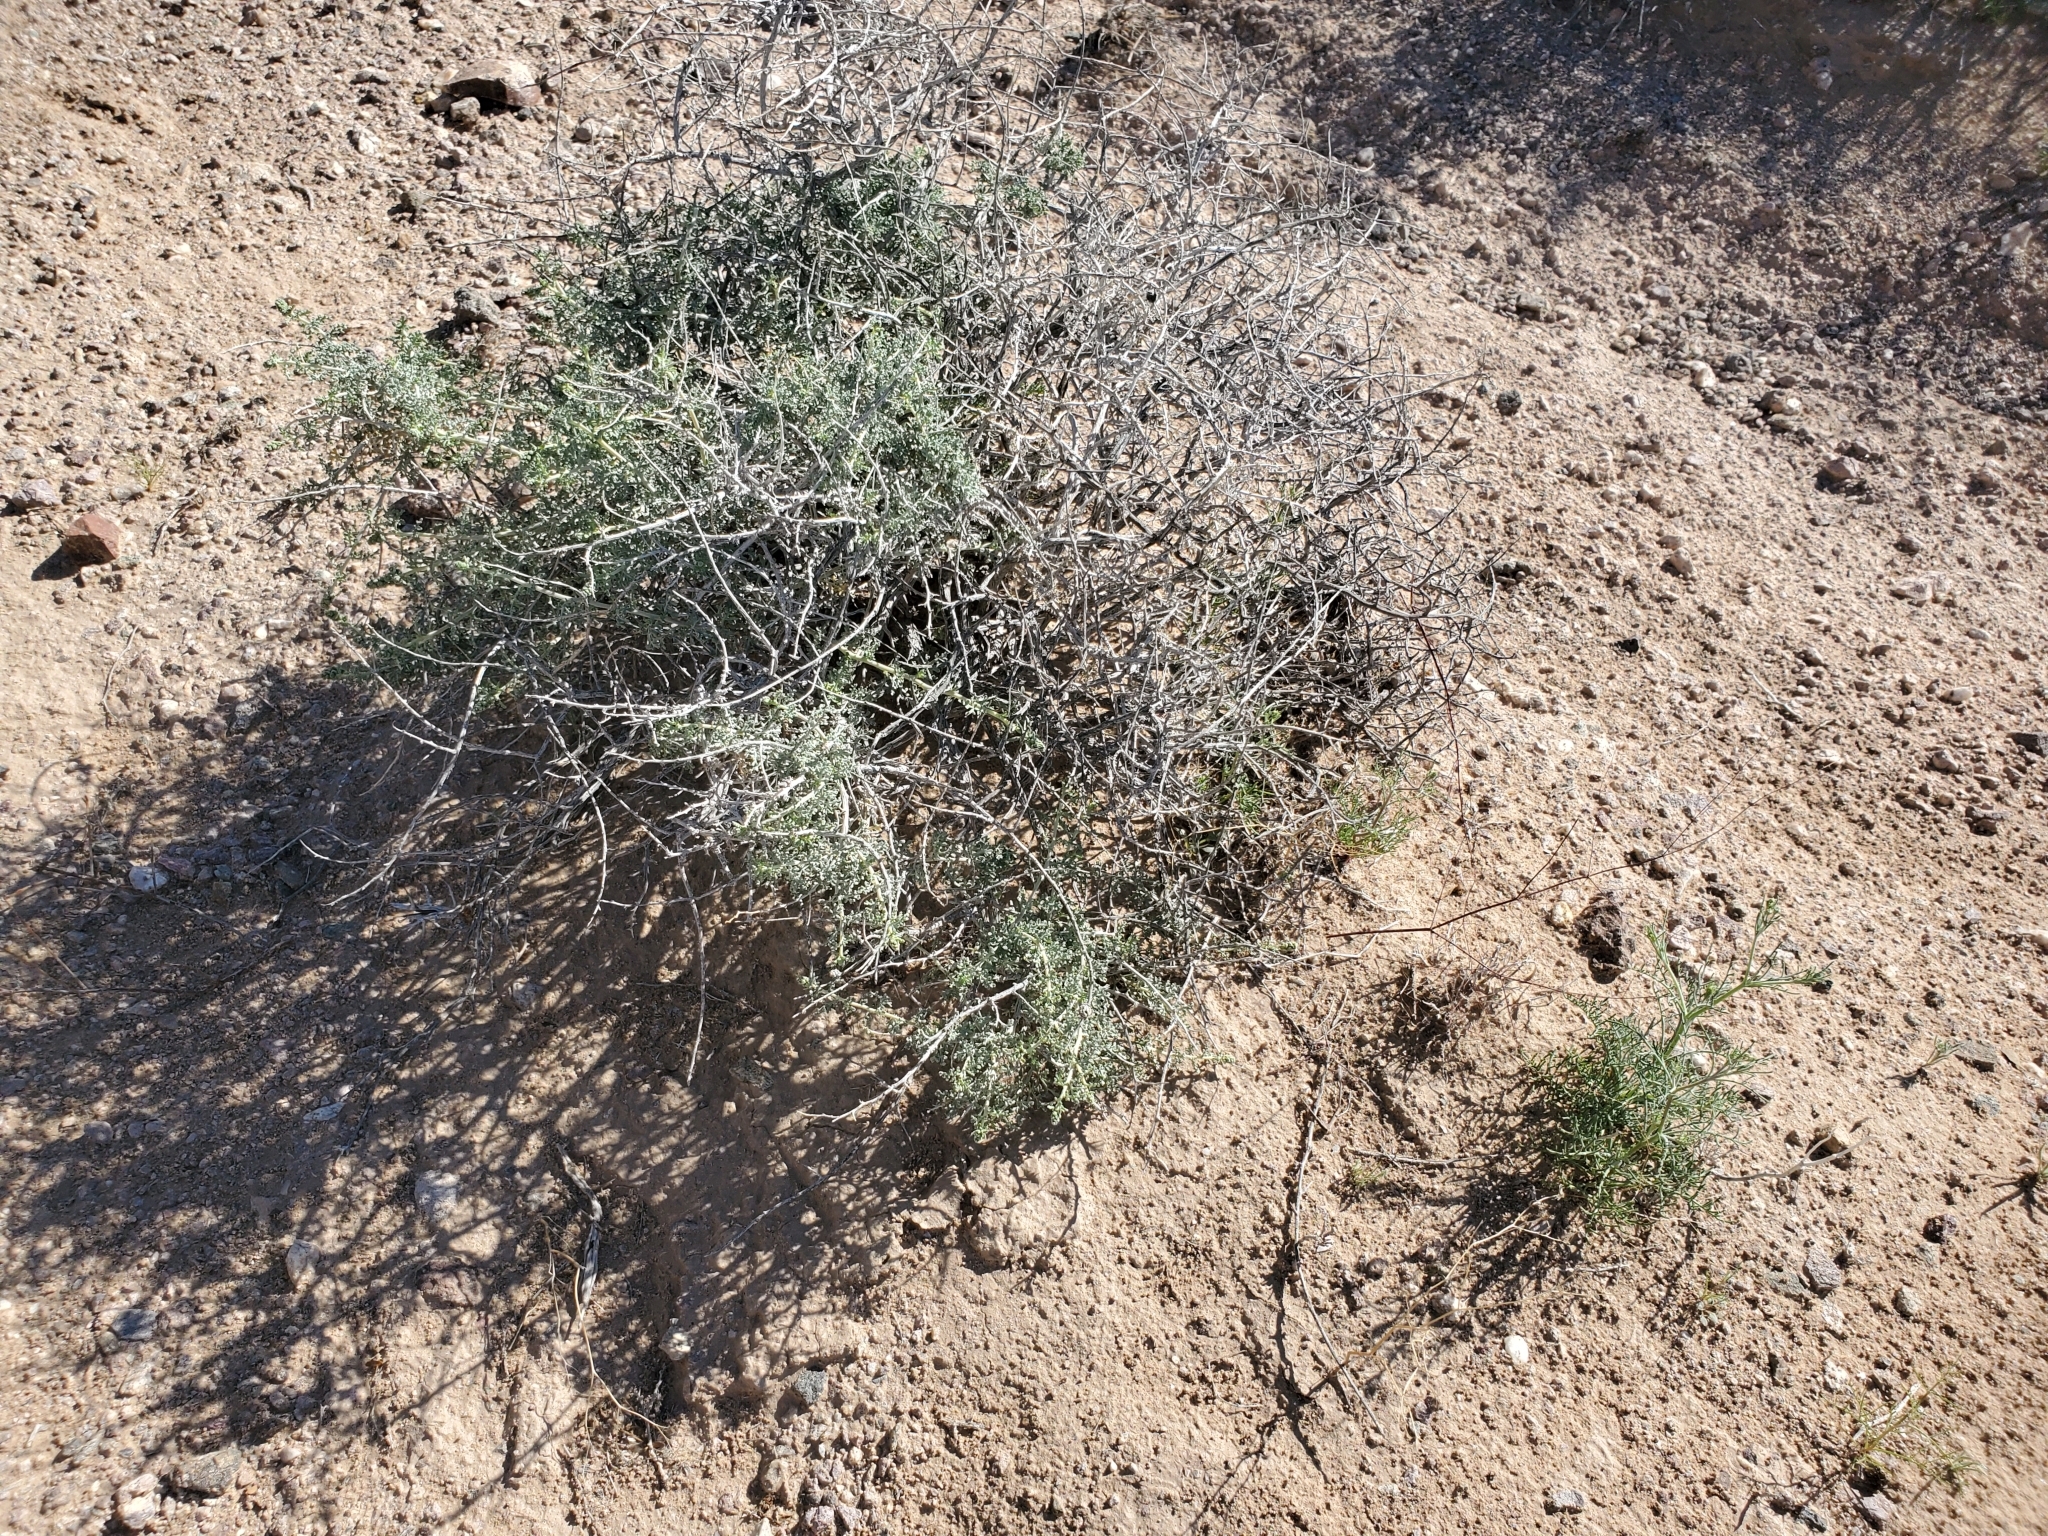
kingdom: Plantae
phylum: Tracheophyta
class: Magnoliopsida
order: Asterales
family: Asteraceae
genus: Ambrosia
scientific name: Ambrosia dumosa
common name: Bur-sage
